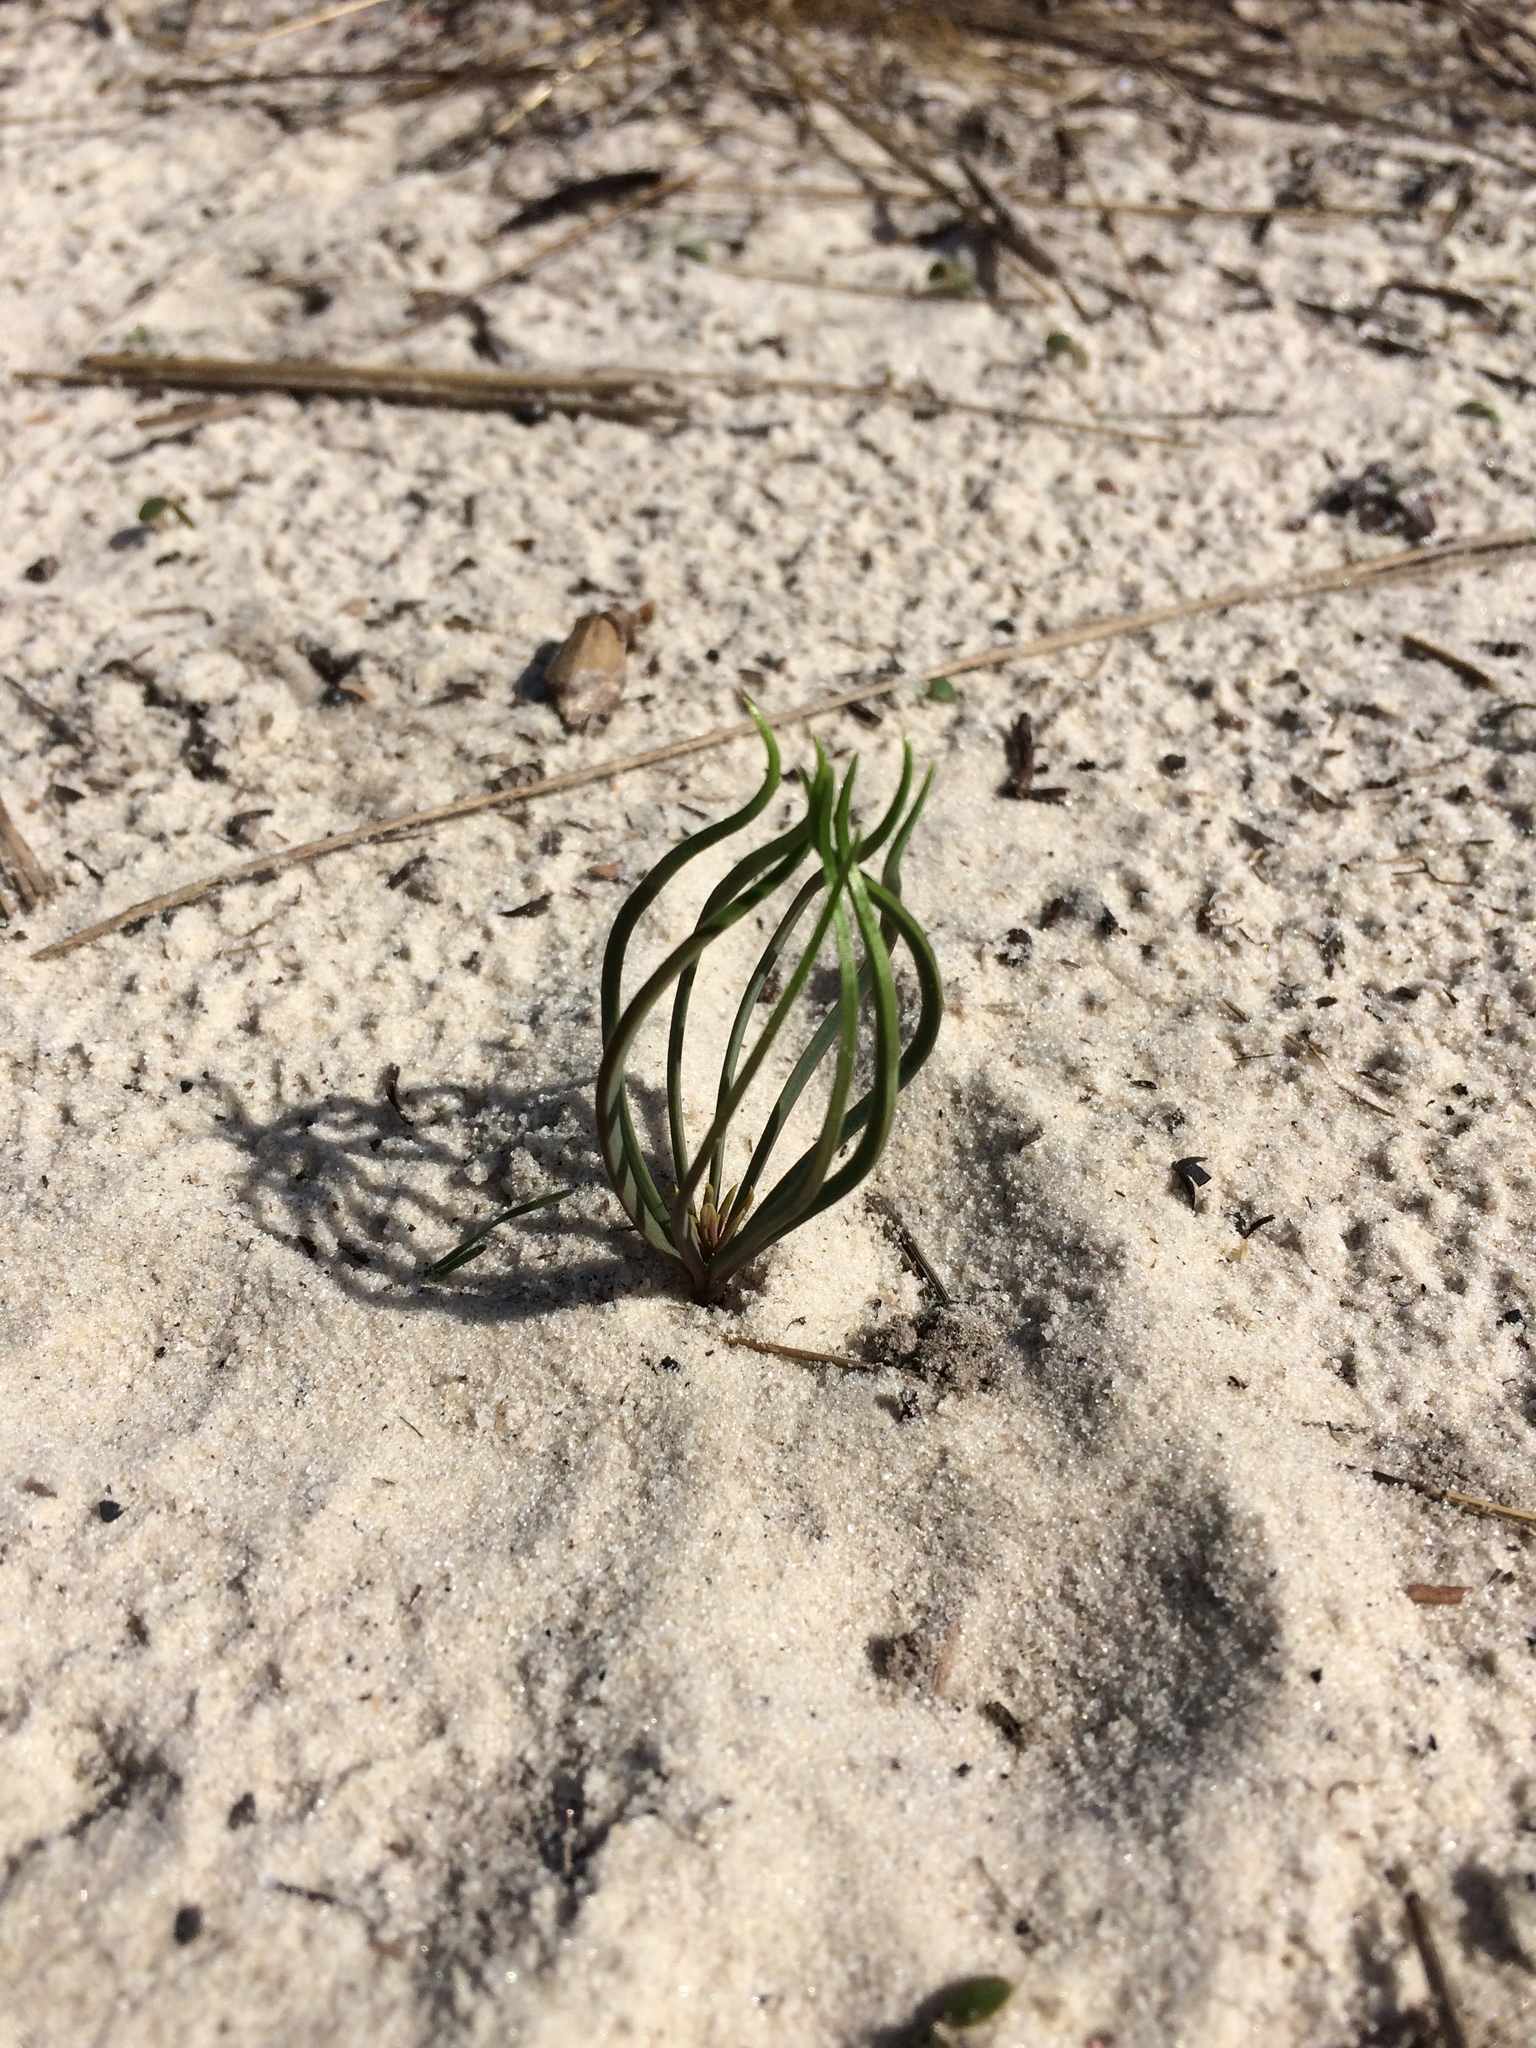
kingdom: Plantae
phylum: Tracheophyta
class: Pinopsida
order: Pinales
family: Pinaceae
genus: Pinus
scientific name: Pinus palustris
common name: Longleaf pine
